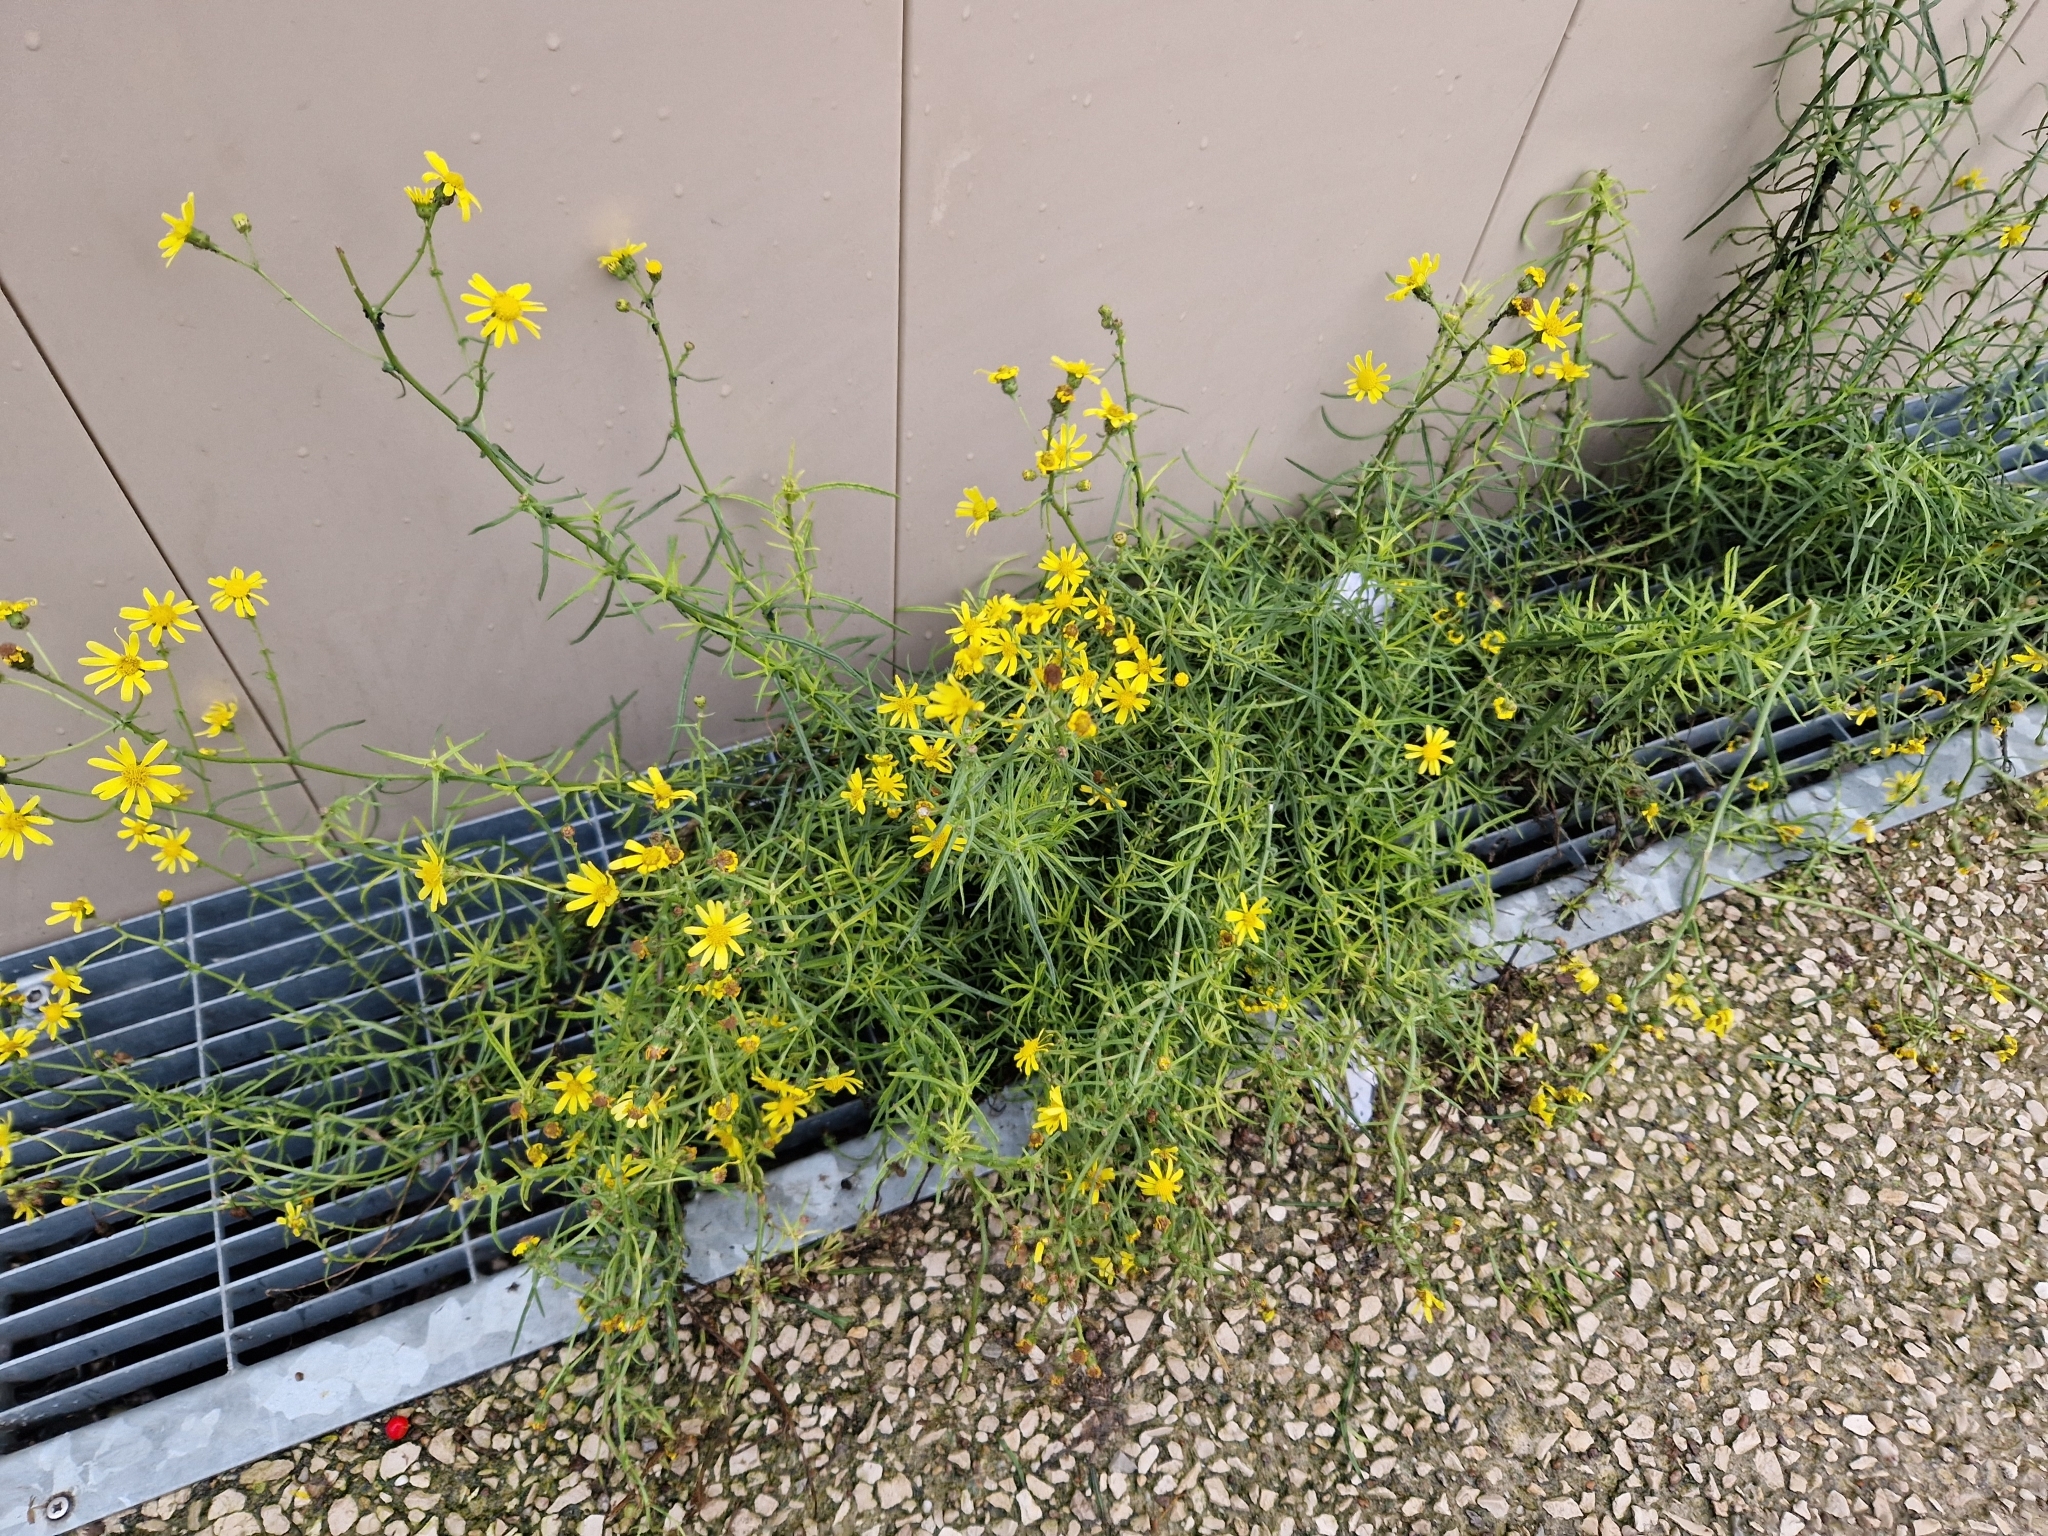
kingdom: Plantae
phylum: Tracheophyta
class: Magnoliopsida
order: Asterales
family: Asteraceae
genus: Senecio
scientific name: Senecio inaequidens
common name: Narrow-leaved ragwort
